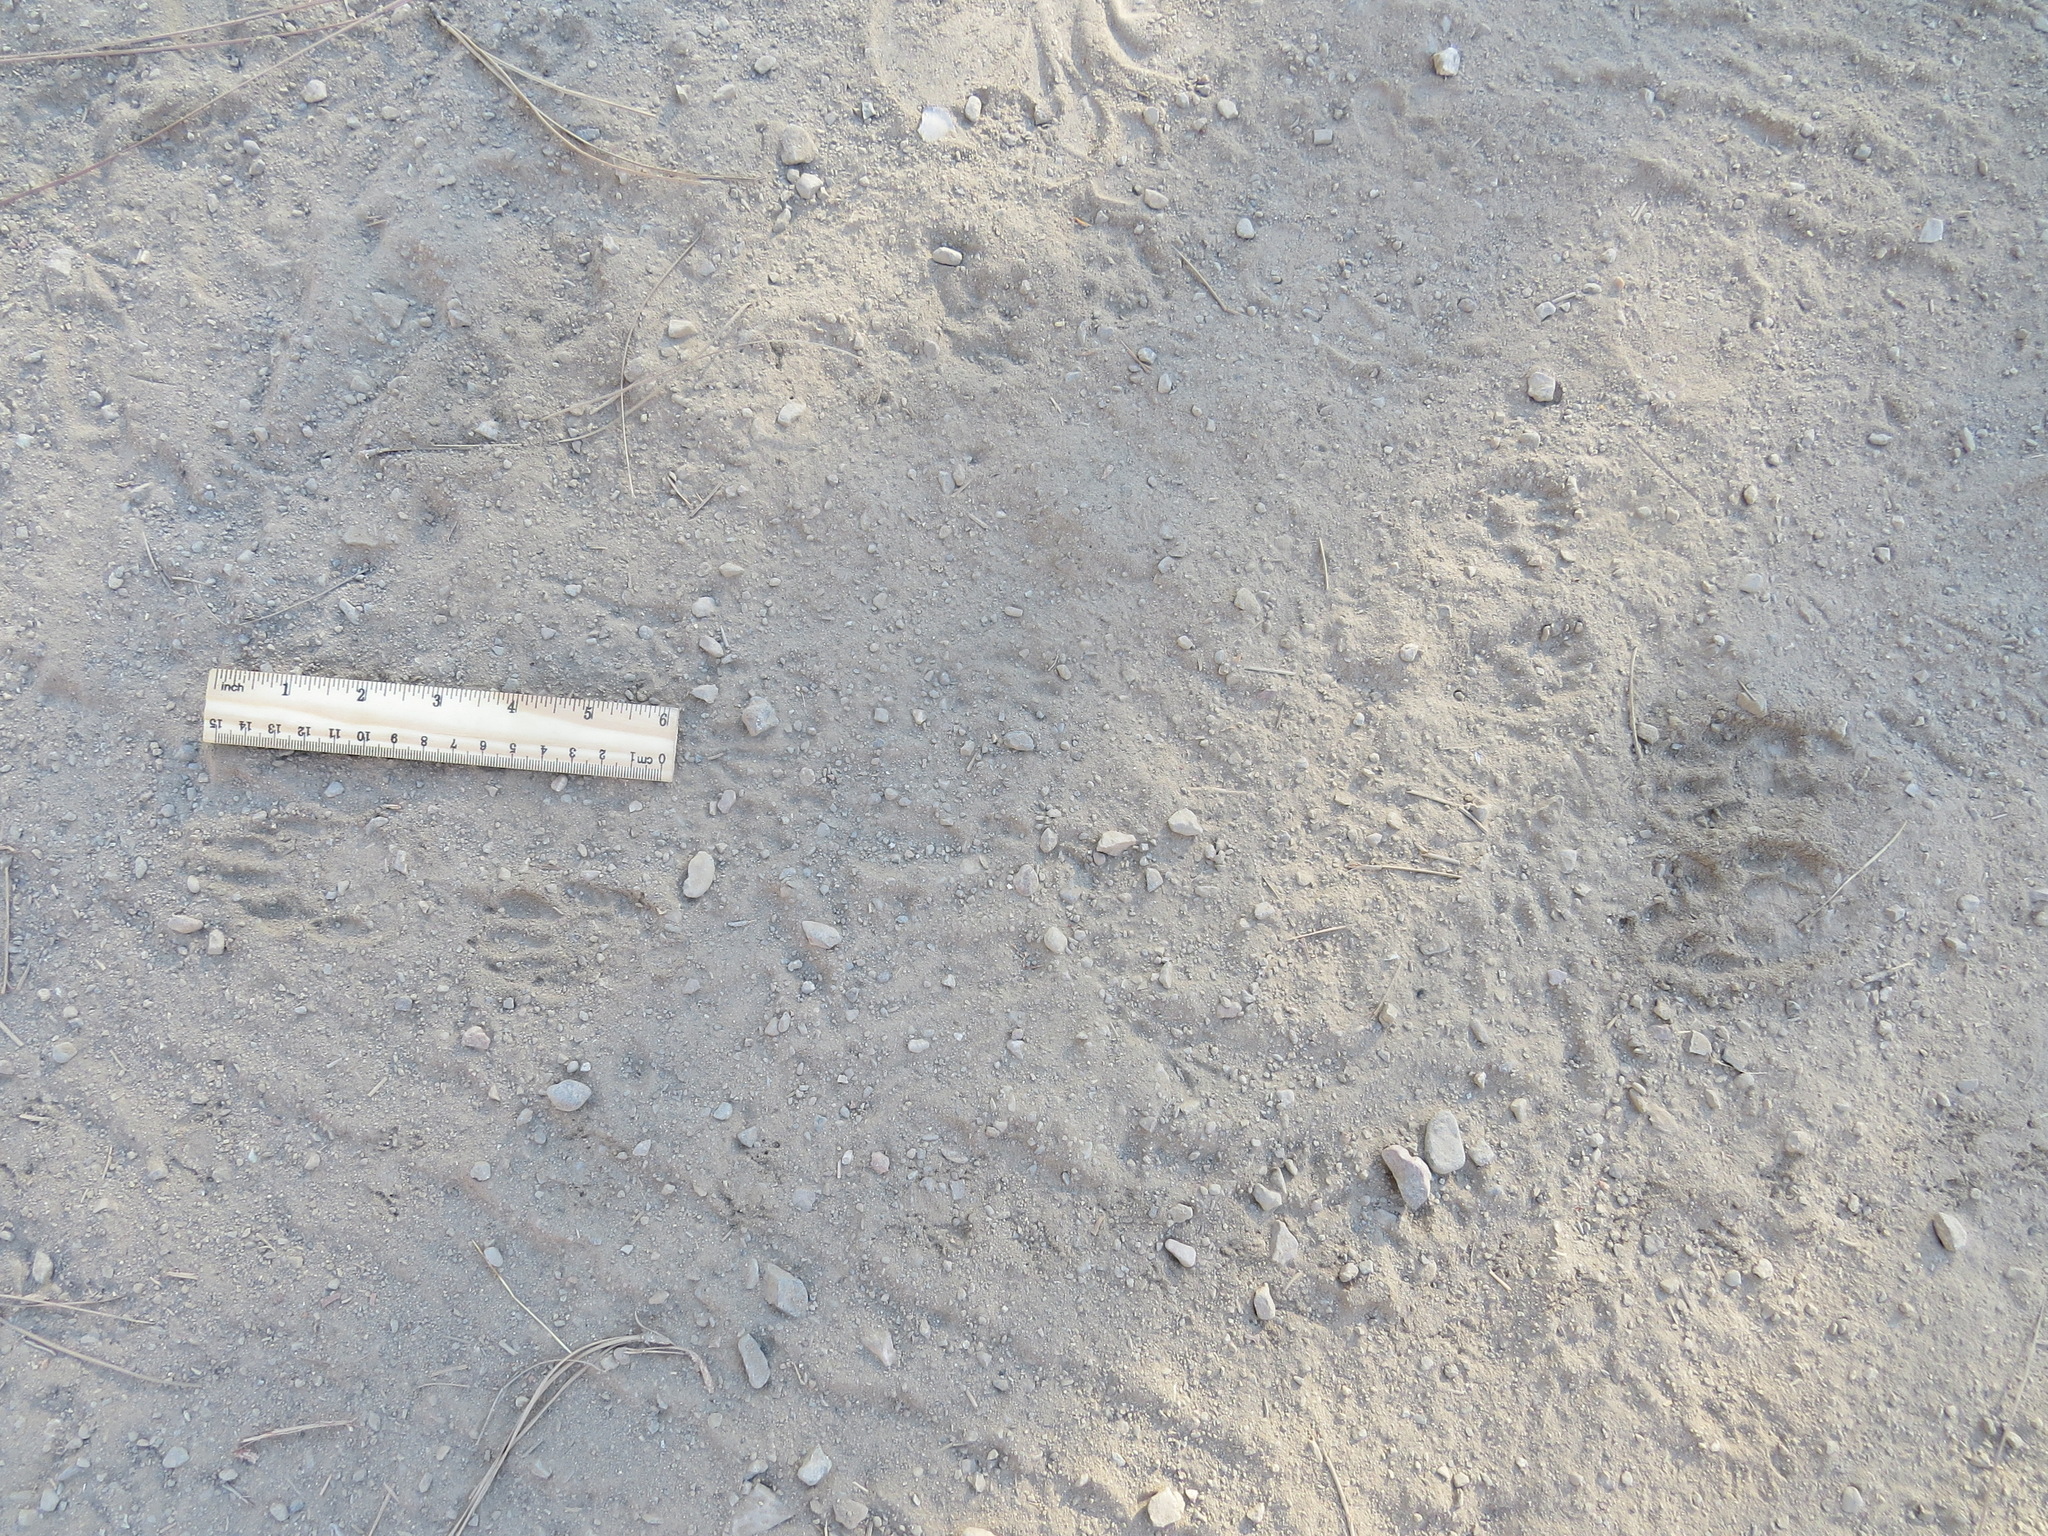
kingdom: Animalia
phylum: Chordata
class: Mammalia
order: Carnivora
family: Procyonidae
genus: Procyon
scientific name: Procyon lotor
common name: Raccoon
